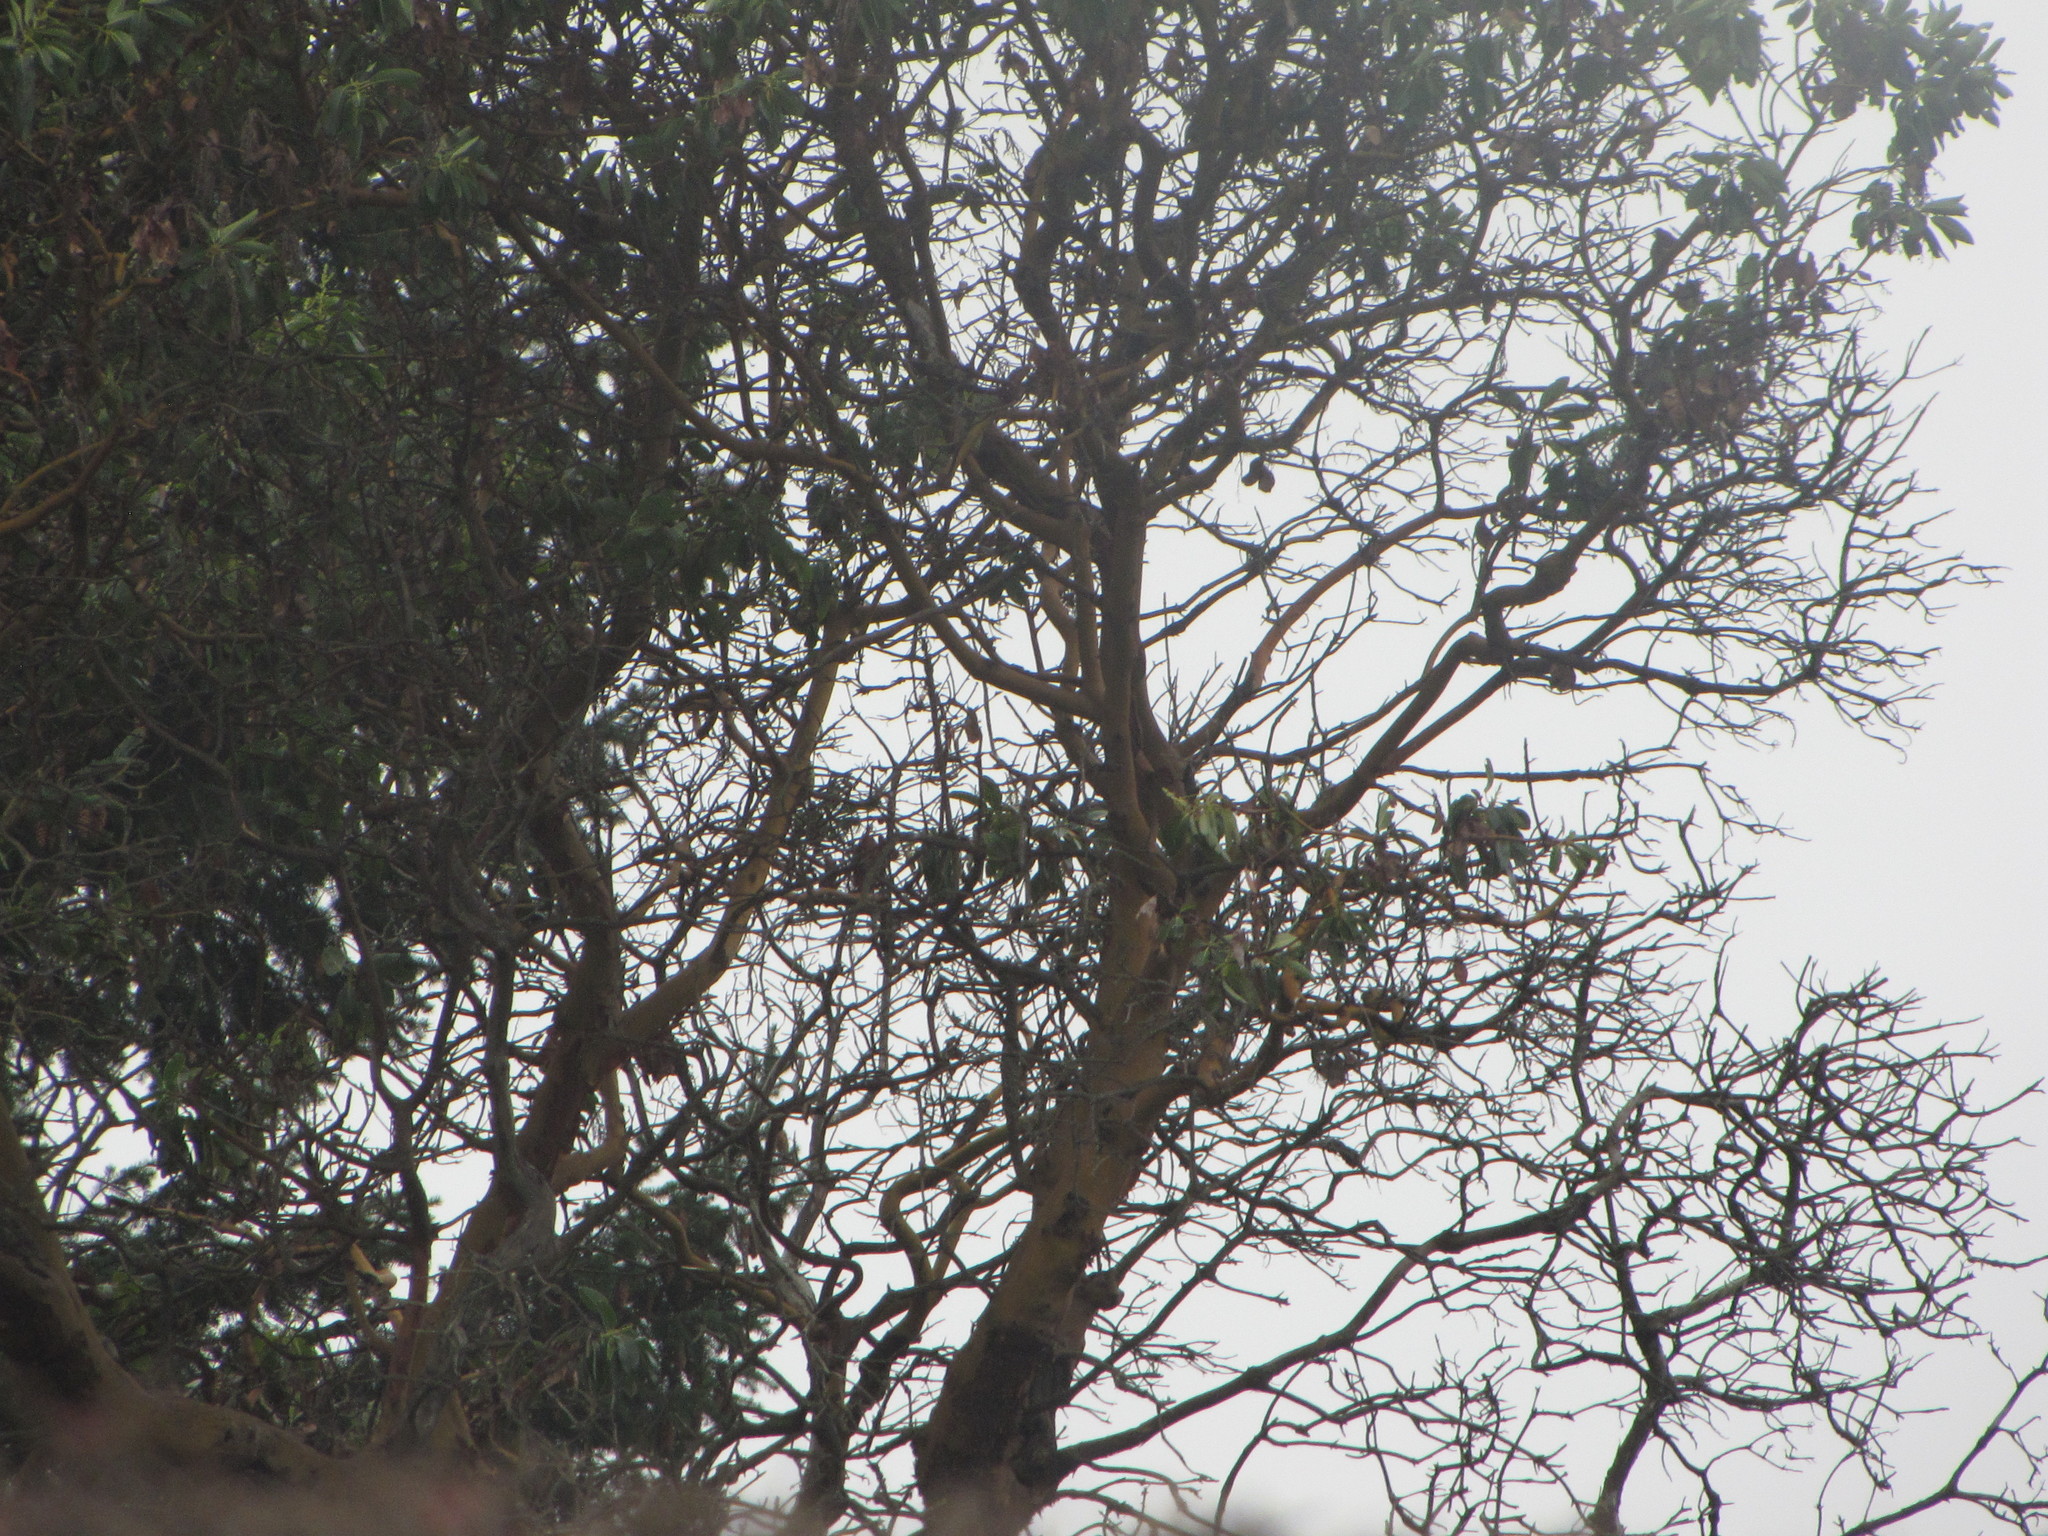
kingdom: Plantae
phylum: Tracheophyta
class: Magnoliopsida
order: Ericales
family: Ericaceae
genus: Arbutus
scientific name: Arbutus menziesii
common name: Pacific madrone
